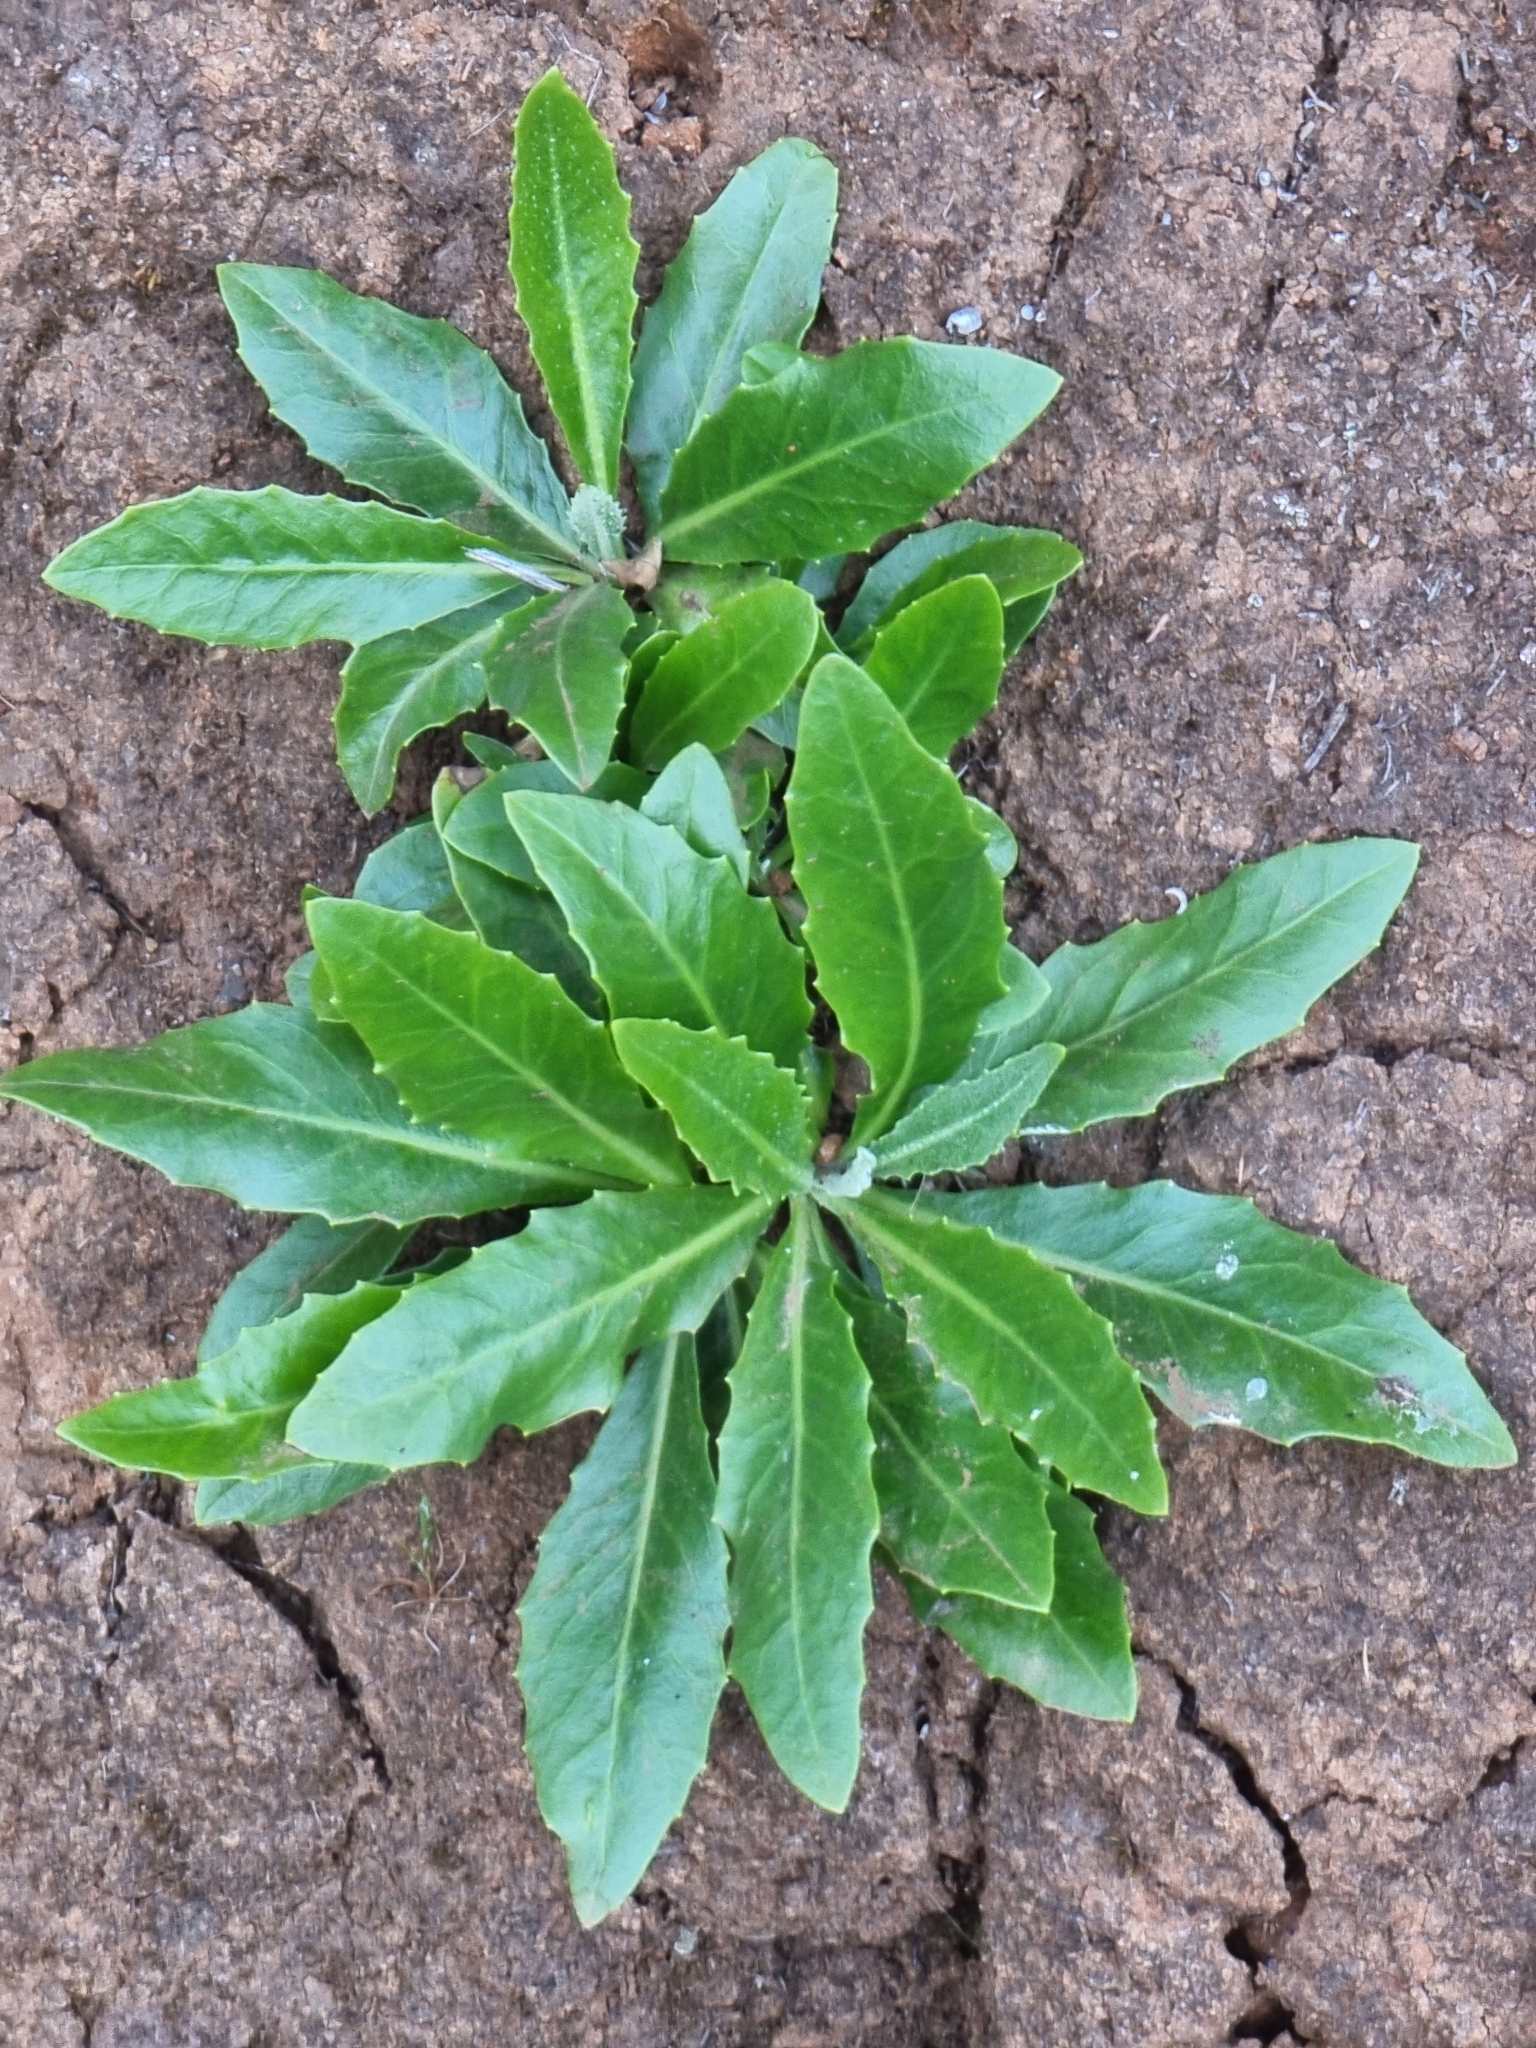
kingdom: Plantae
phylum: Tracheophyta
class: Magnoliopsida
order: Asterales
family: Asteraceae
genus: Tolpis
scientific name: Tolpis macrorhiza
